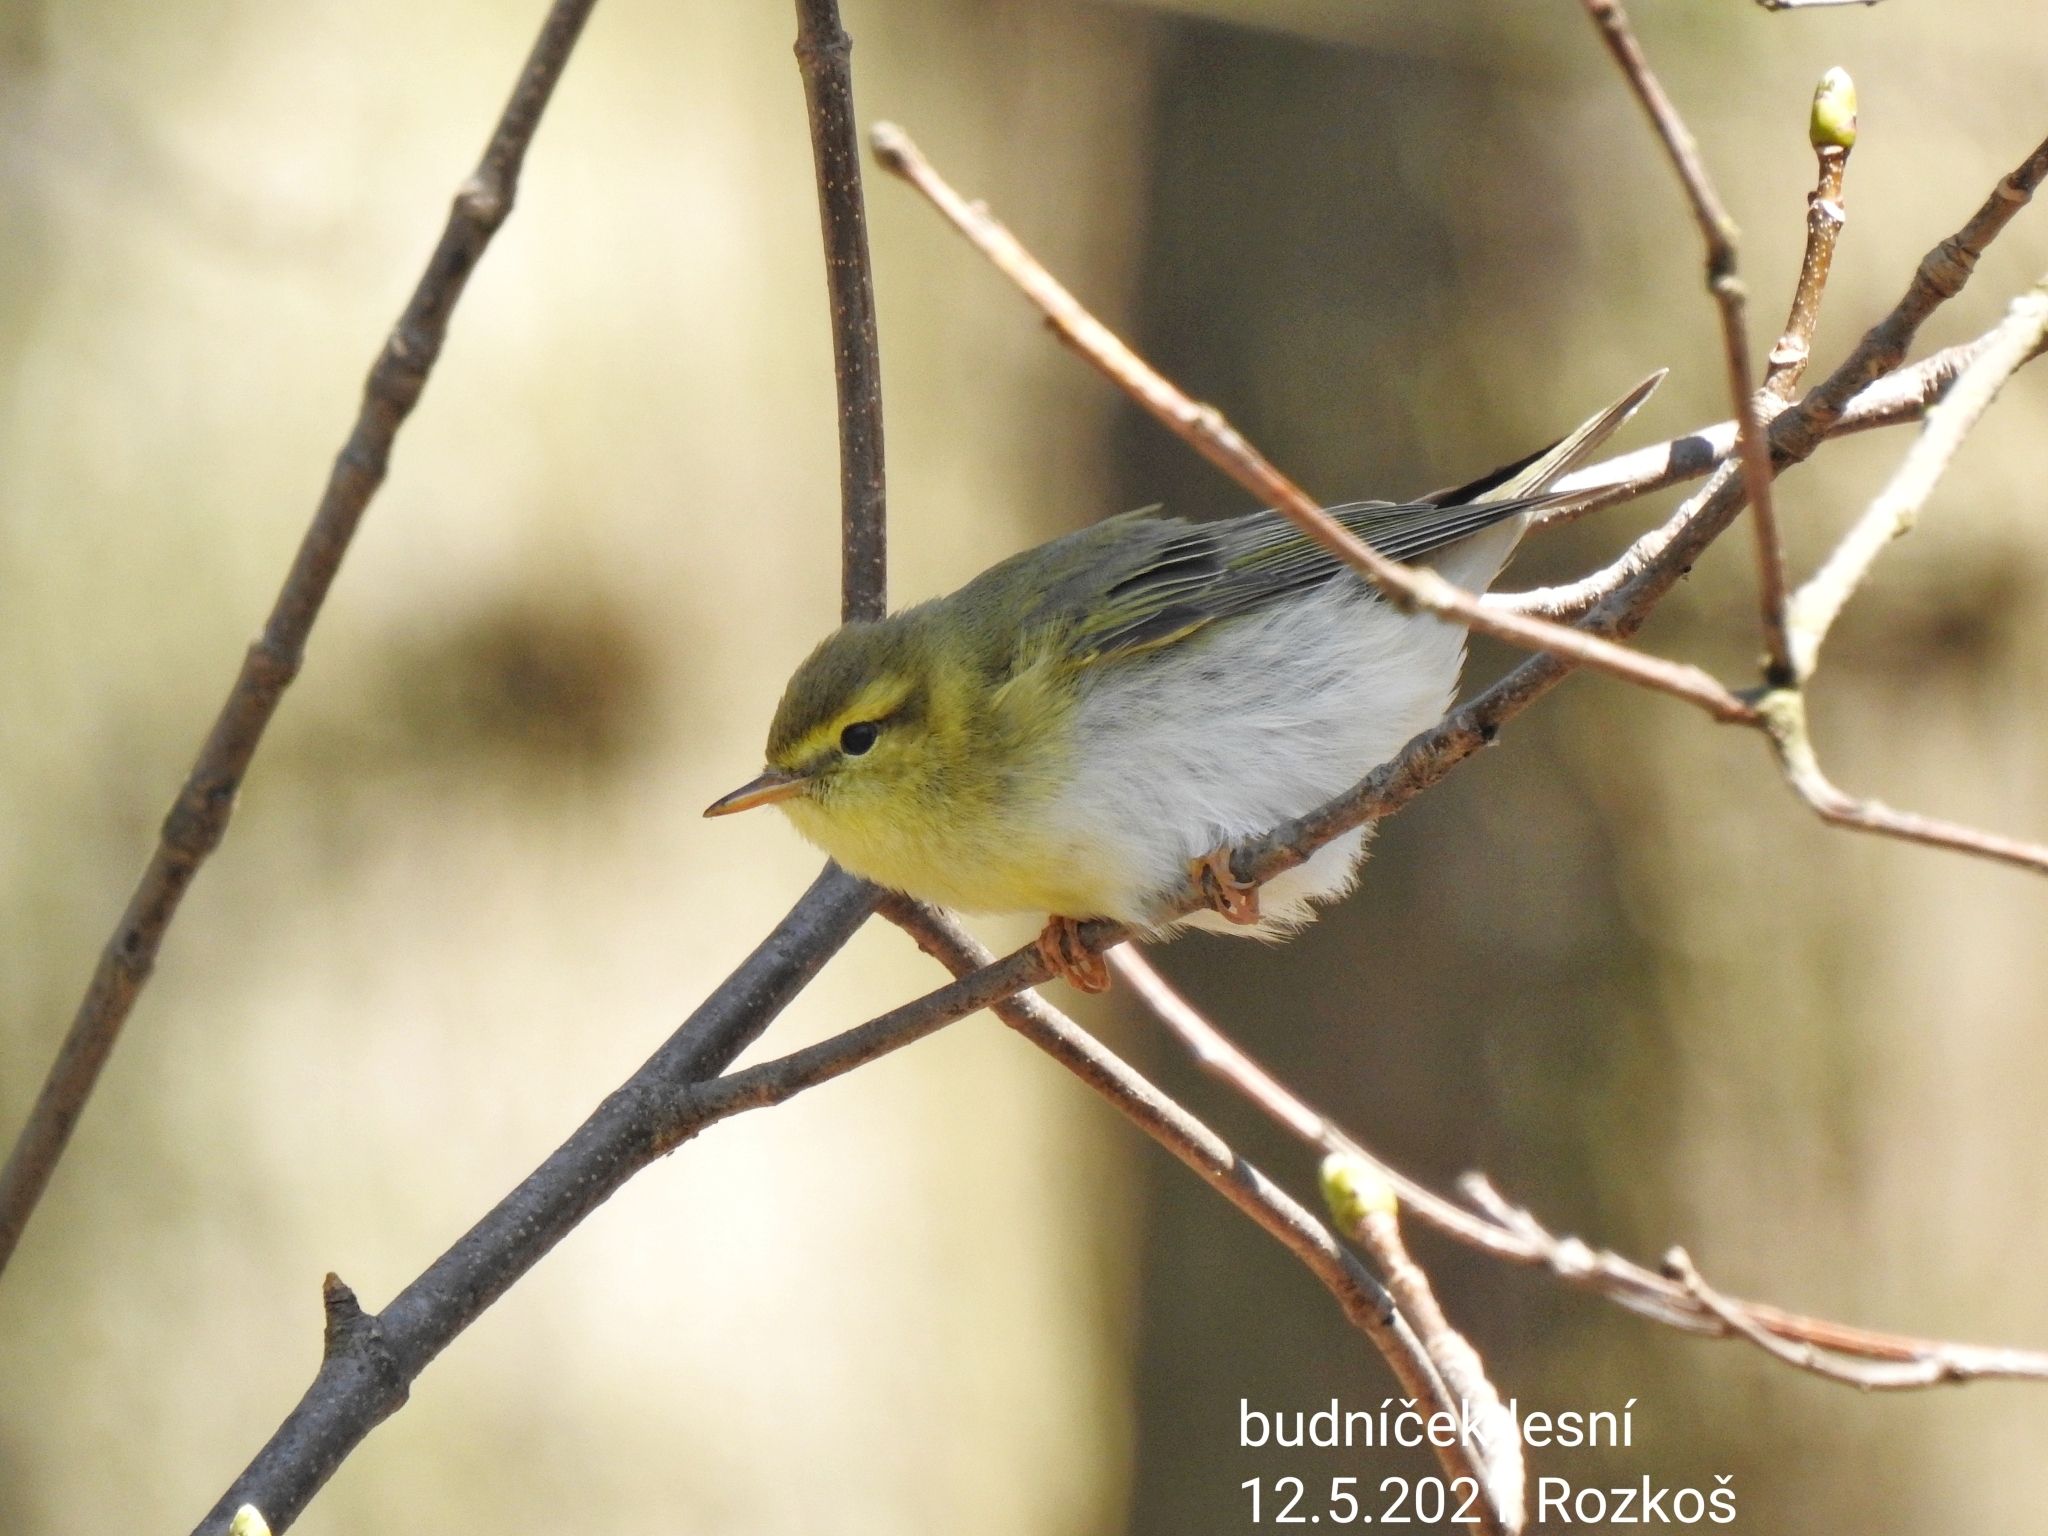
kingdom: Animalia
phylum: Chordata
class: Aves
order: Passeriformes
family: Phylloscopidae
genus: Phylloscopus
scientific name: Phylloscopus sibillatrix
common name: Wood warbler
